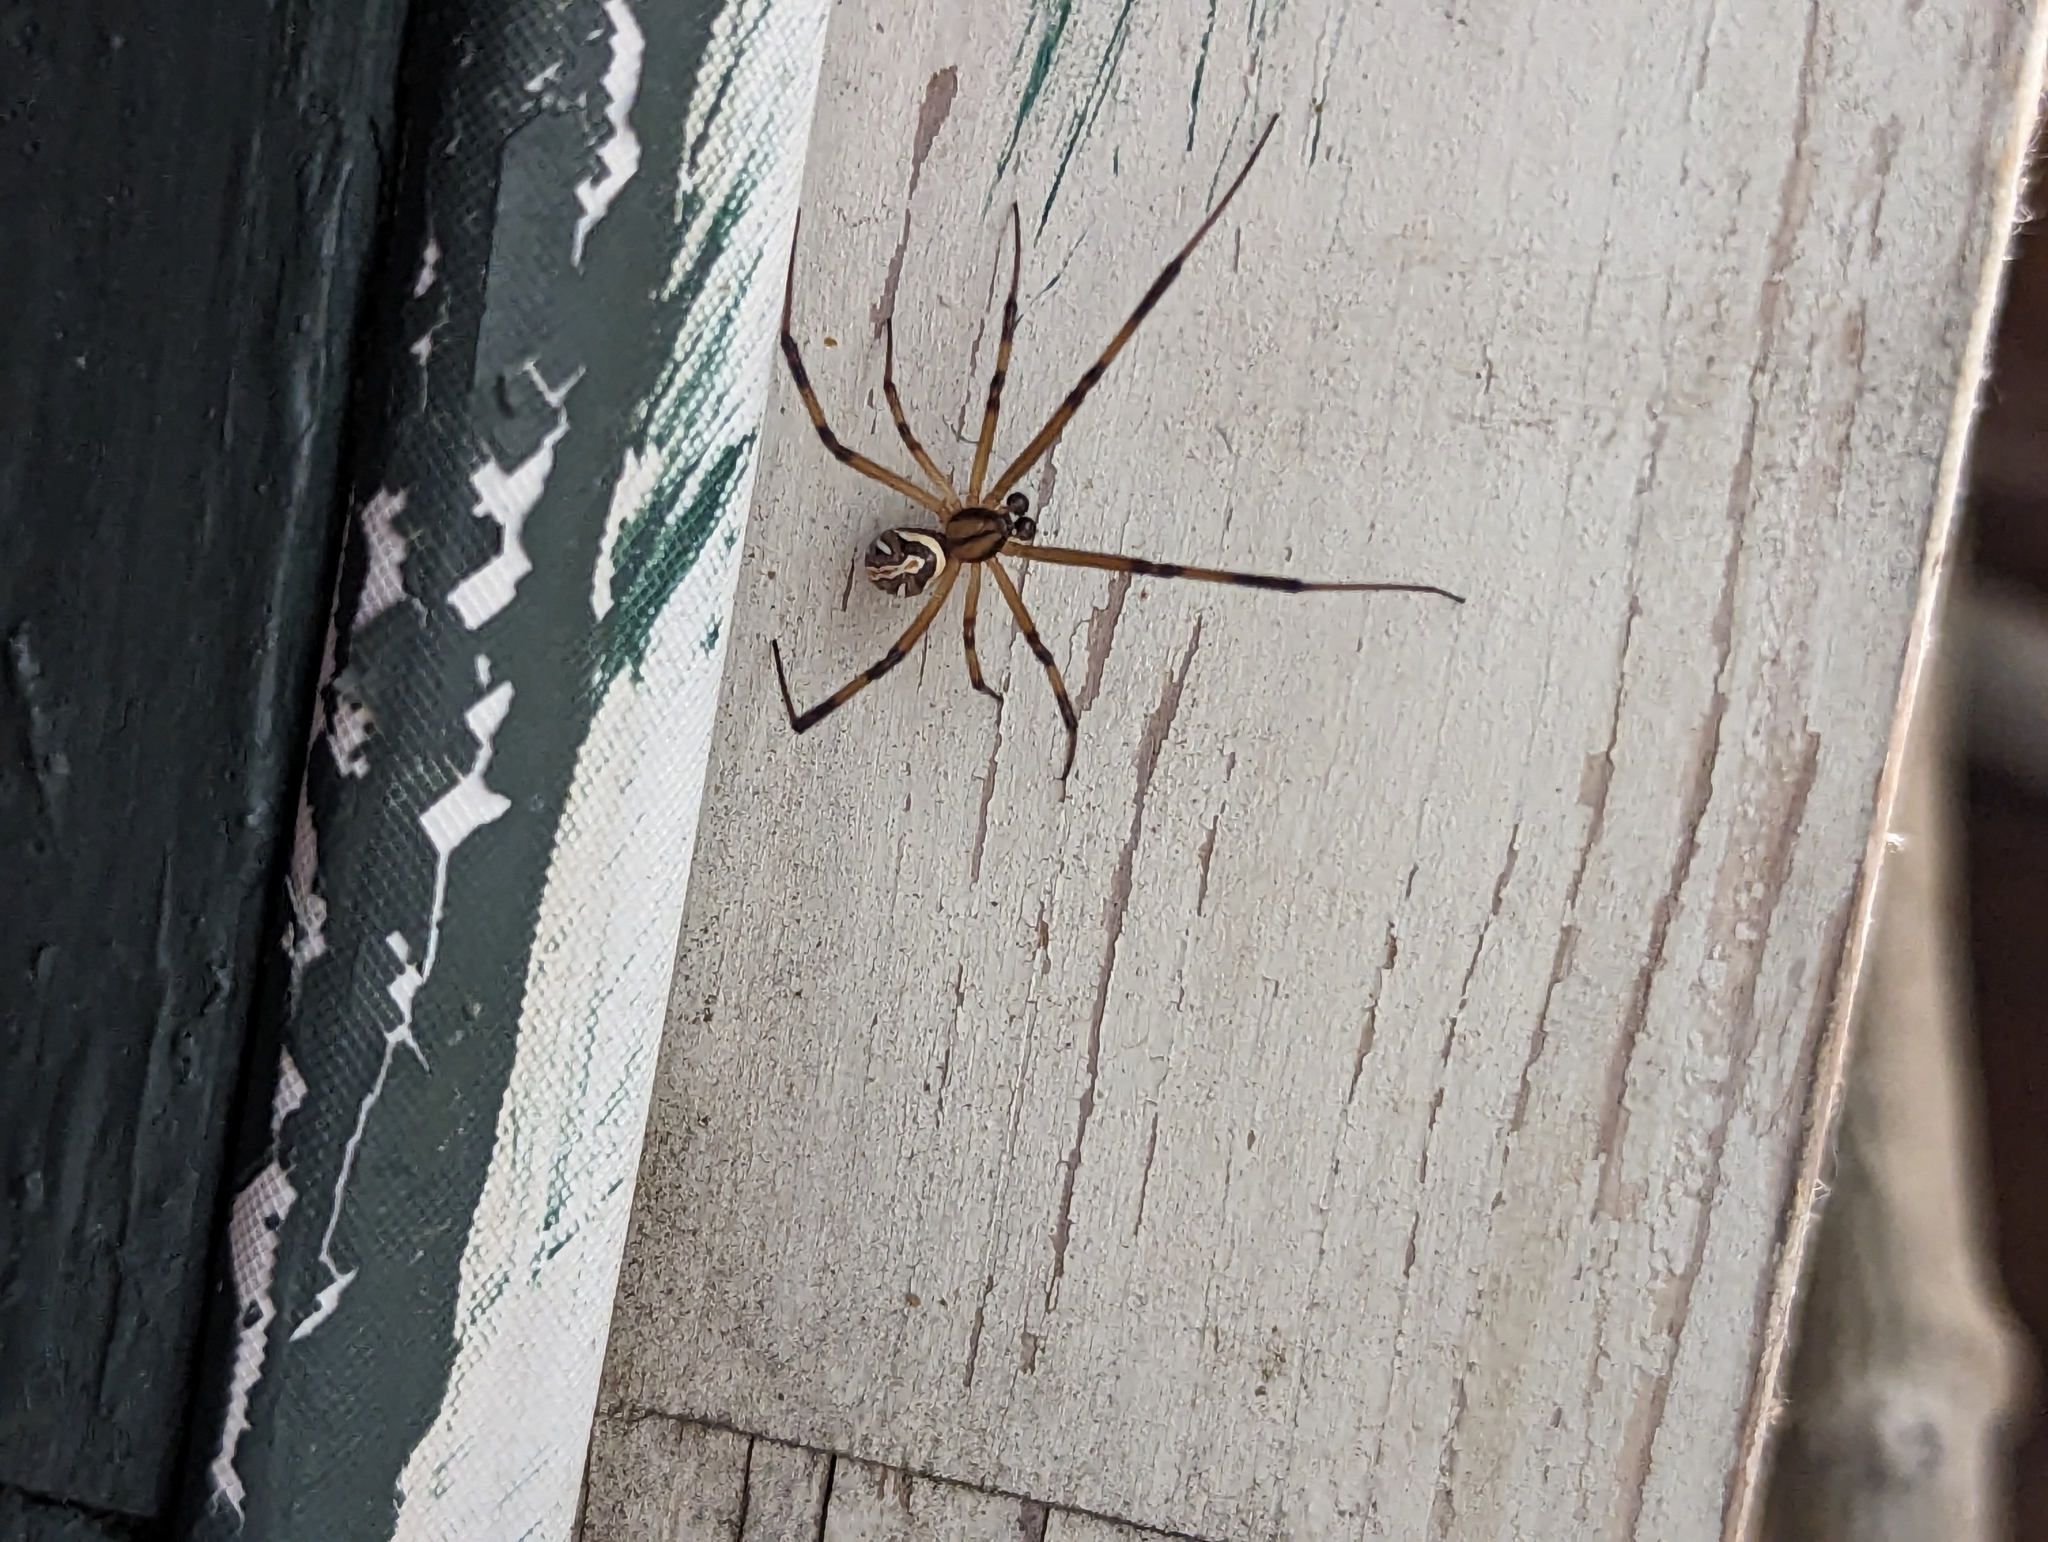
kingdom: Animalia
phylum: Arthropoda
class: Arachnida
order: Araneae
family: Theridiidae
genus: Latrodectus
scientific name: Latrodectus hesperus
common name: Western black widow
